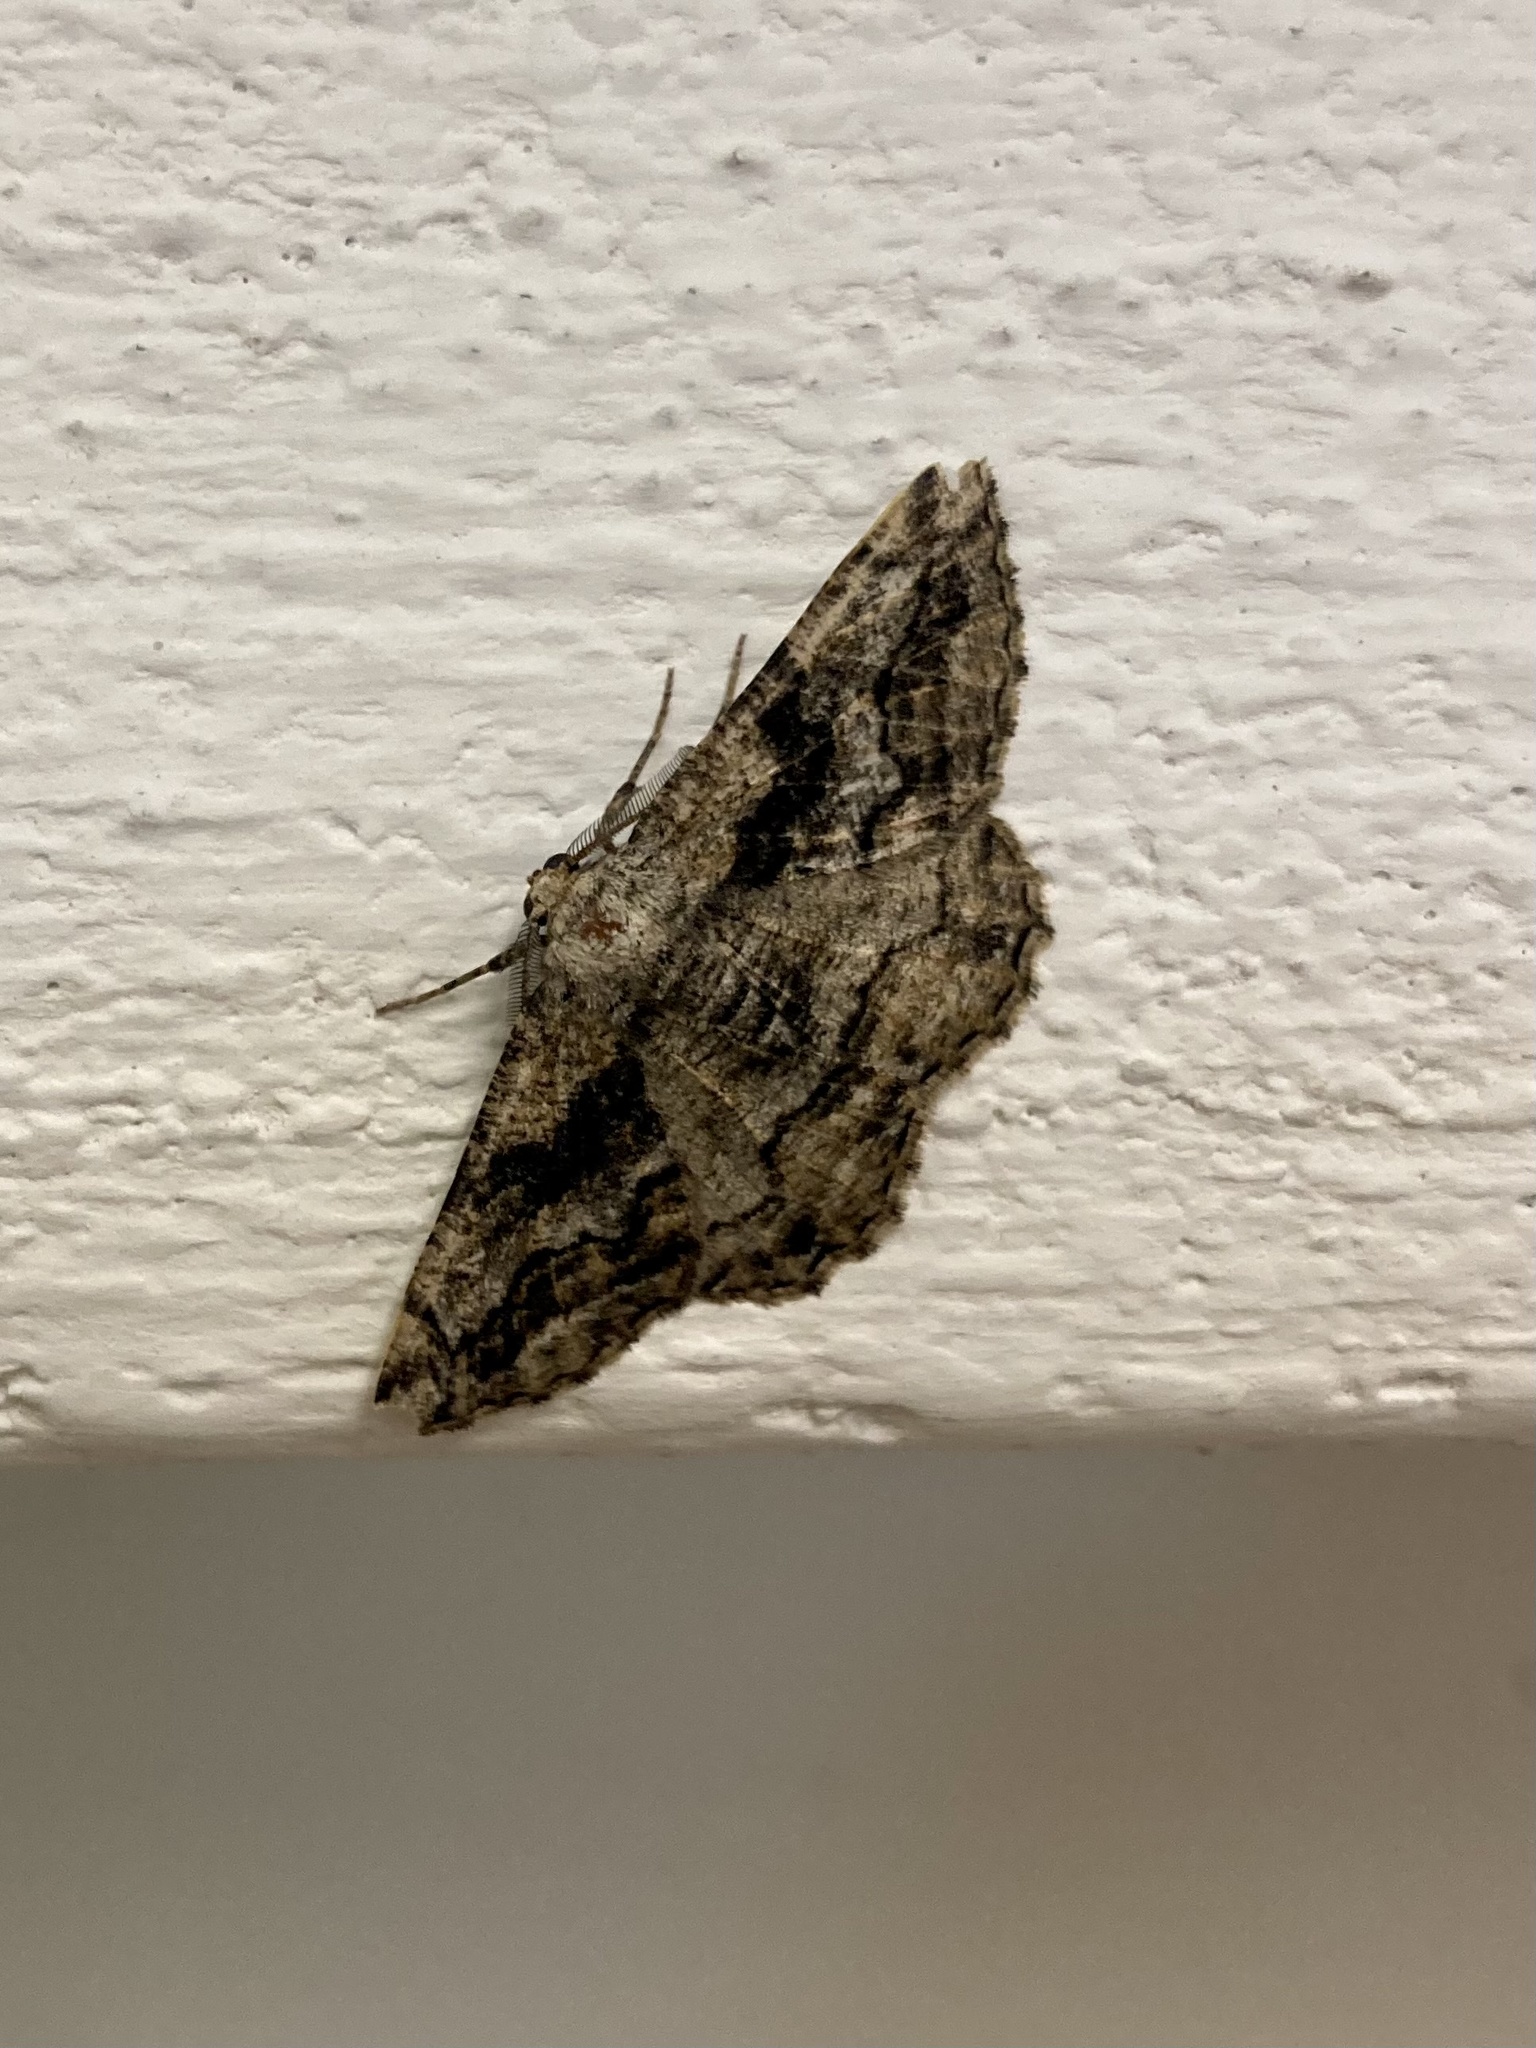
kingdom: Animalia
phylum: Arthropoda
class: Insecta
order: Lepidoptera
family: Geometridae
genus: Synopsia
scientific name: Synopsia sociaria
